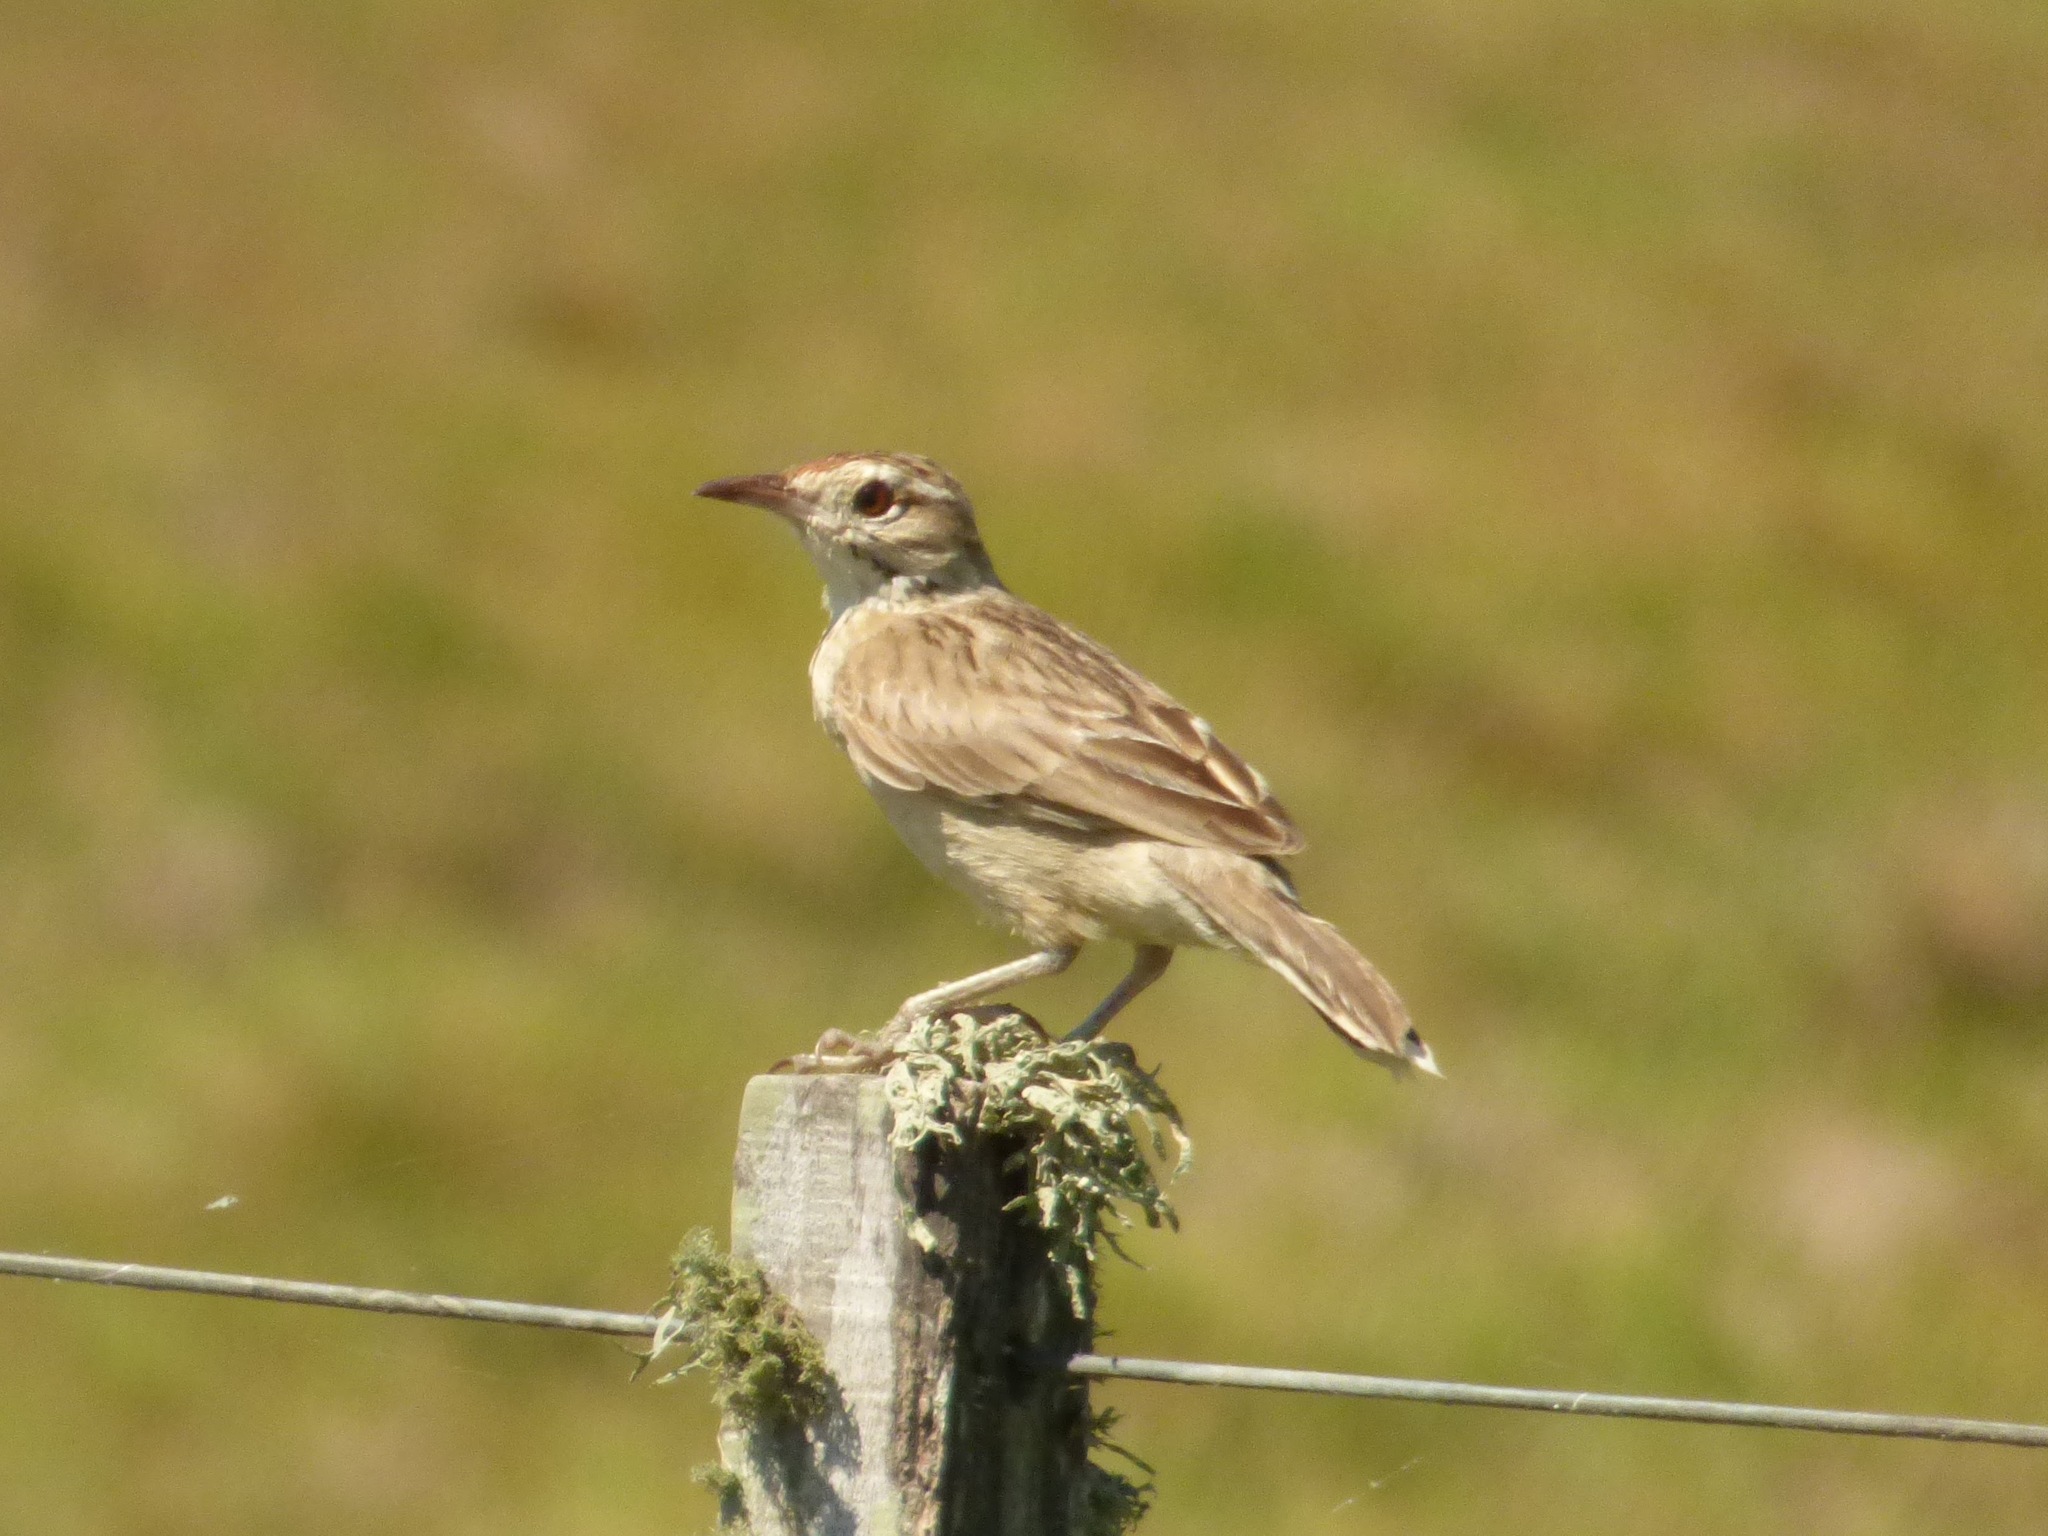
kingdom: Animalia
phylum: Chordata
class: Aves
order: Passeriformes
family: Furnariidae
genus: Anumbius
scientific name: Anumbius annumbi
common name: Firewood-gatherer
